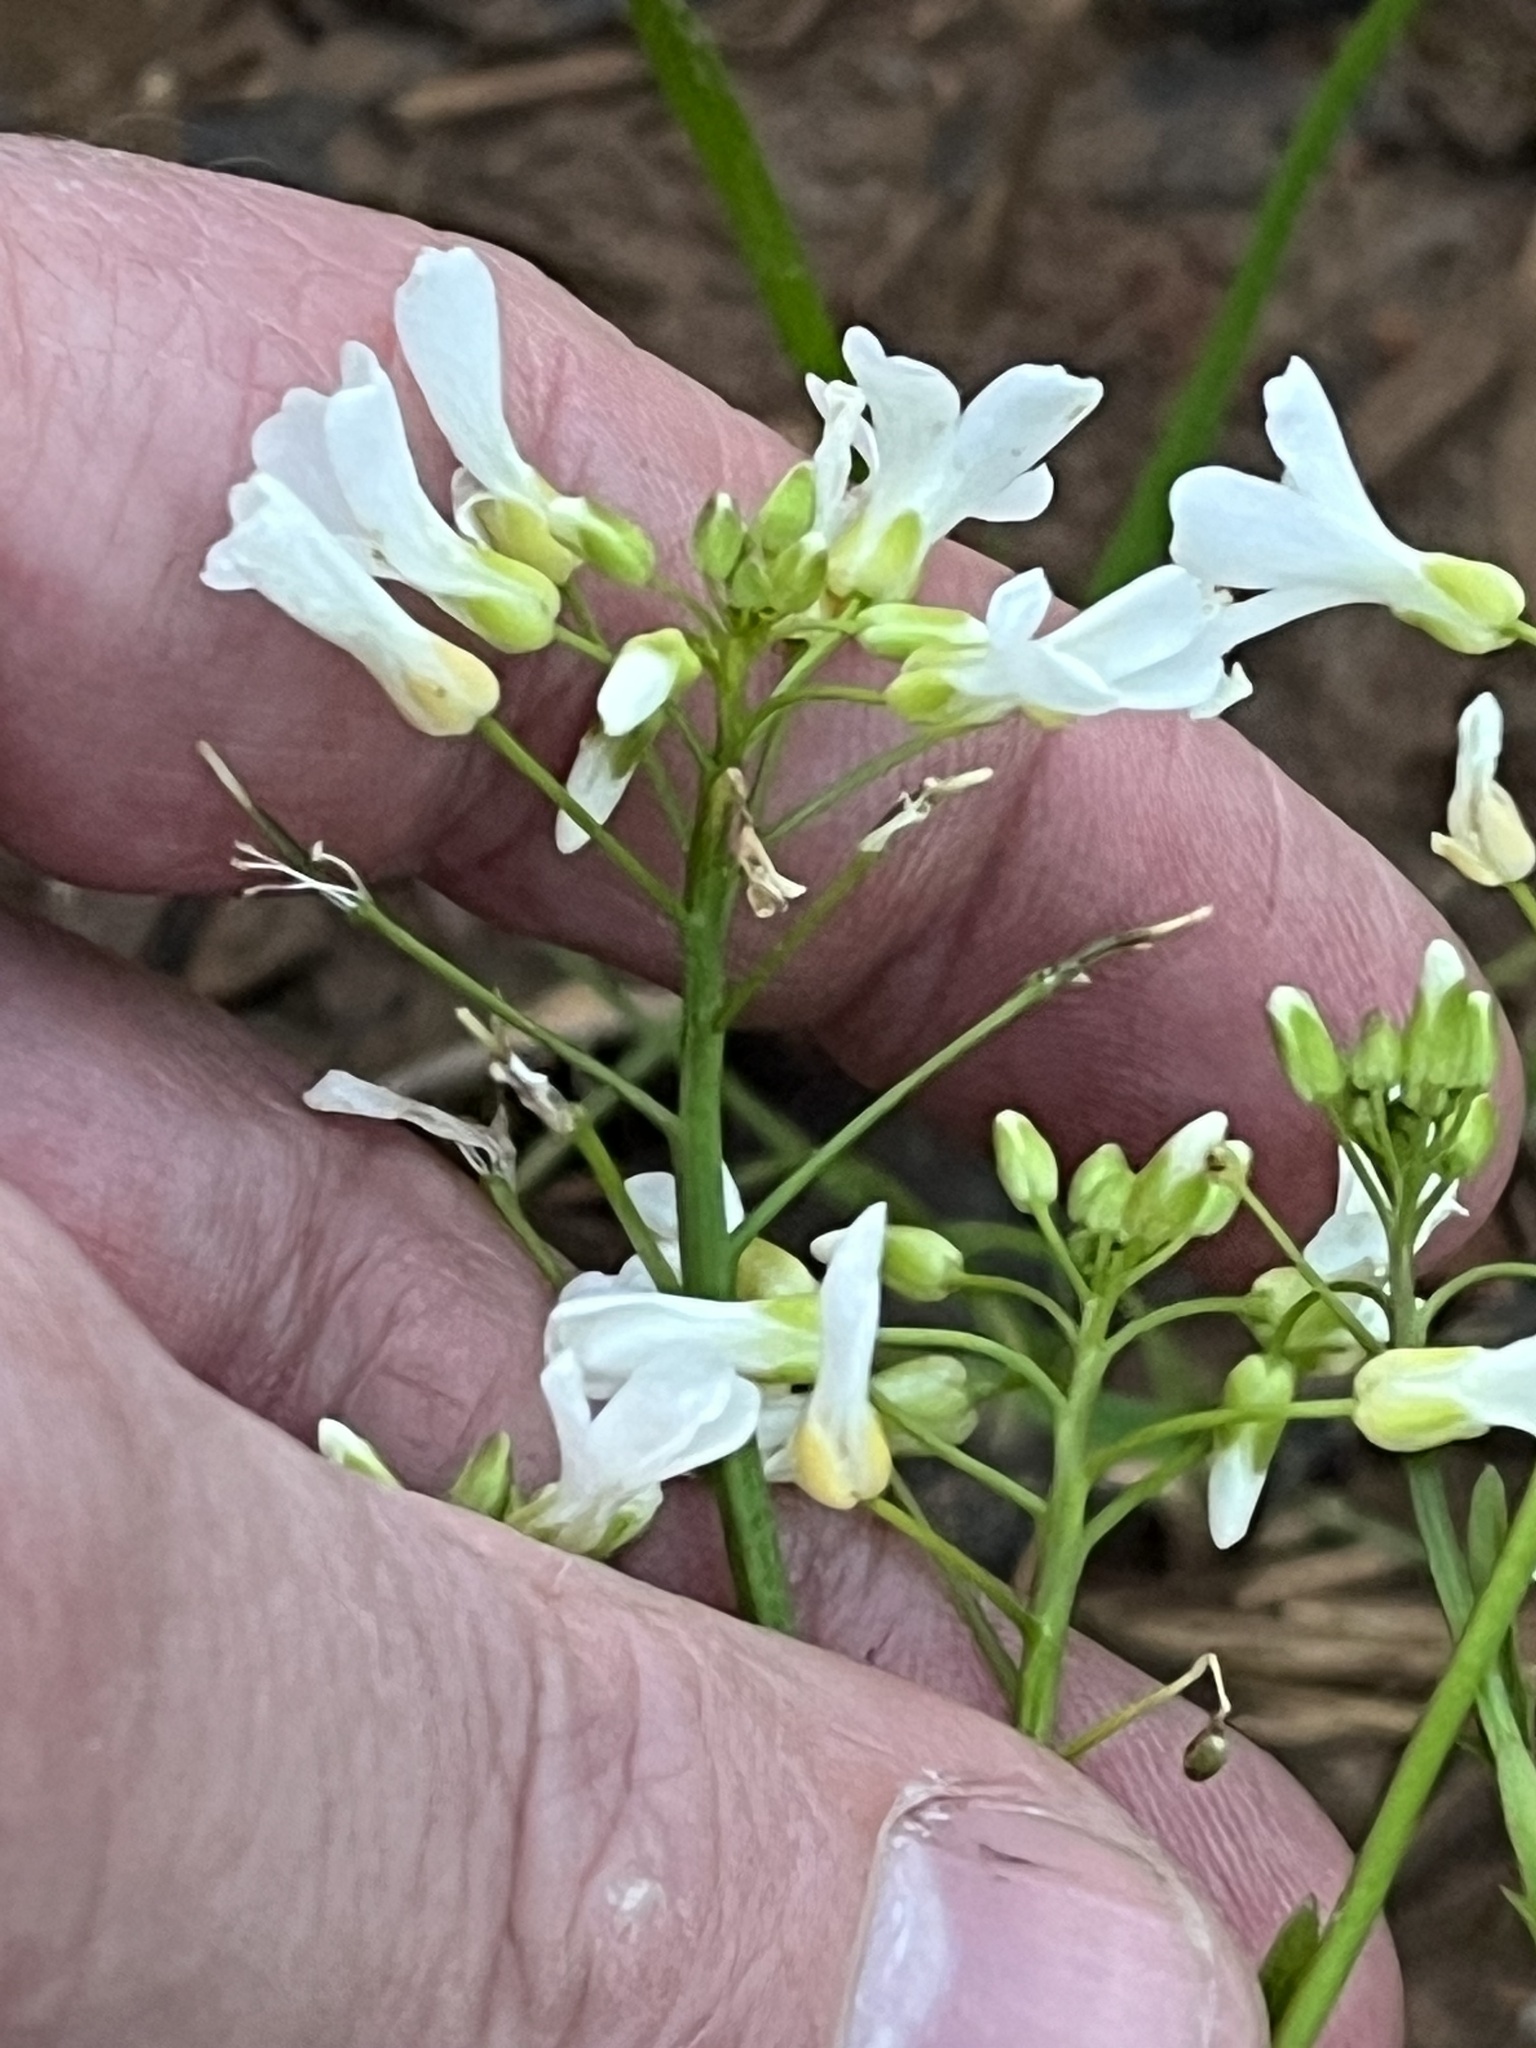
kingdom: Plantae
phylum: Tracheophyta
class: Magnoliopsida
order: Brassicales
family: Brassicaceae
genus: Cardamine
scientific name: Cardamine bulbosa
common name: Spring cress
